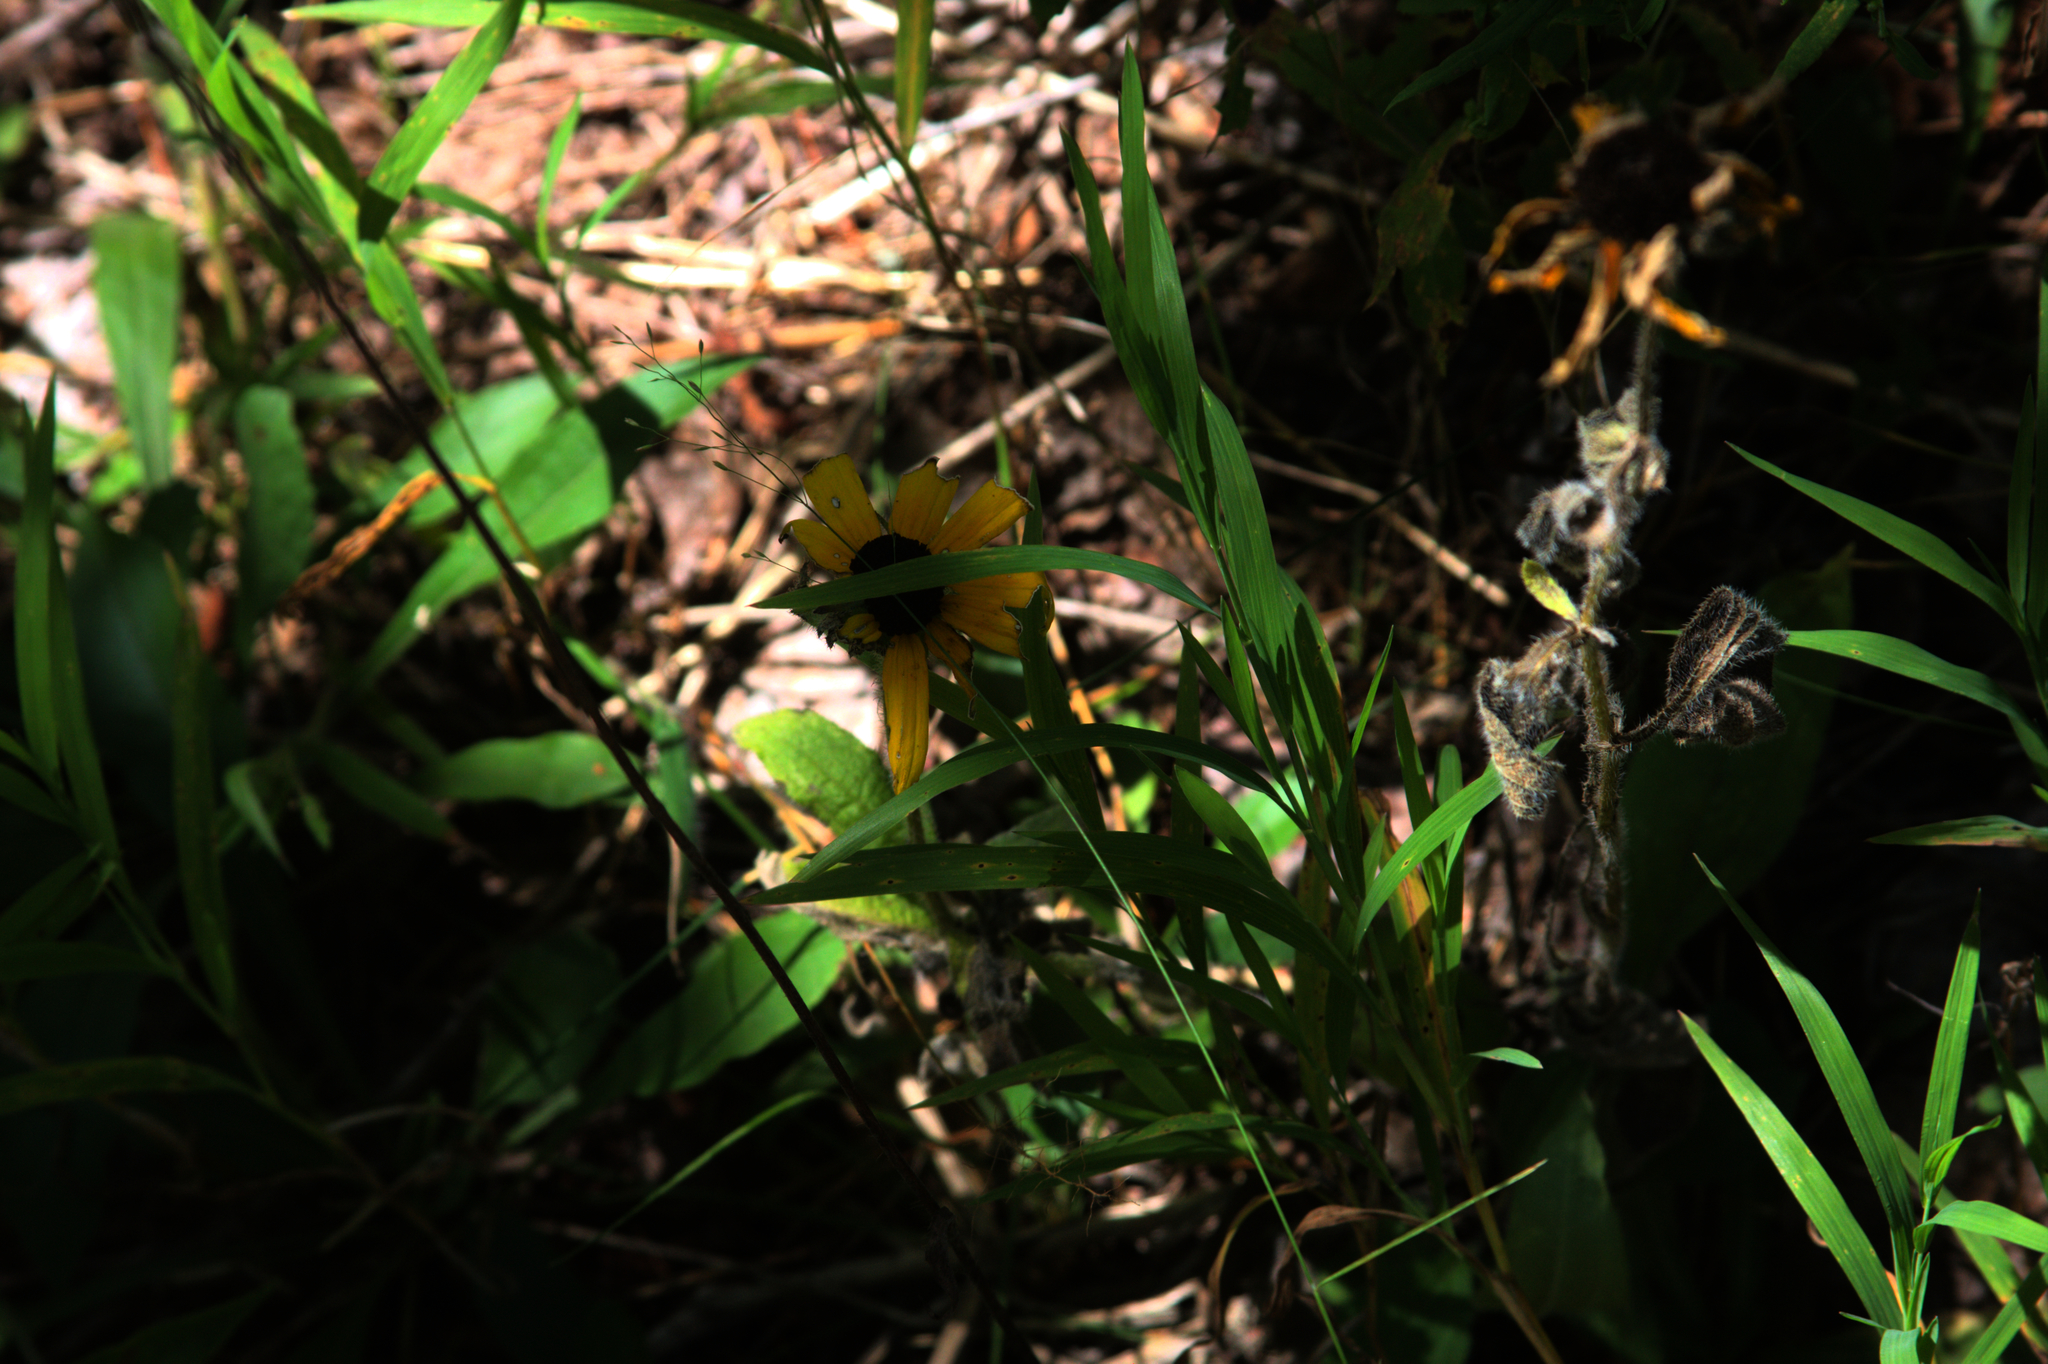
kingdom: Plantae
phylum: Tracheophyta
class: Magnoliopsida
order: Asterales
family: Asteraceae
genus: Rudbeckia
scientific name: Rudbeckia hirta
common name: Black-eyed-susan
